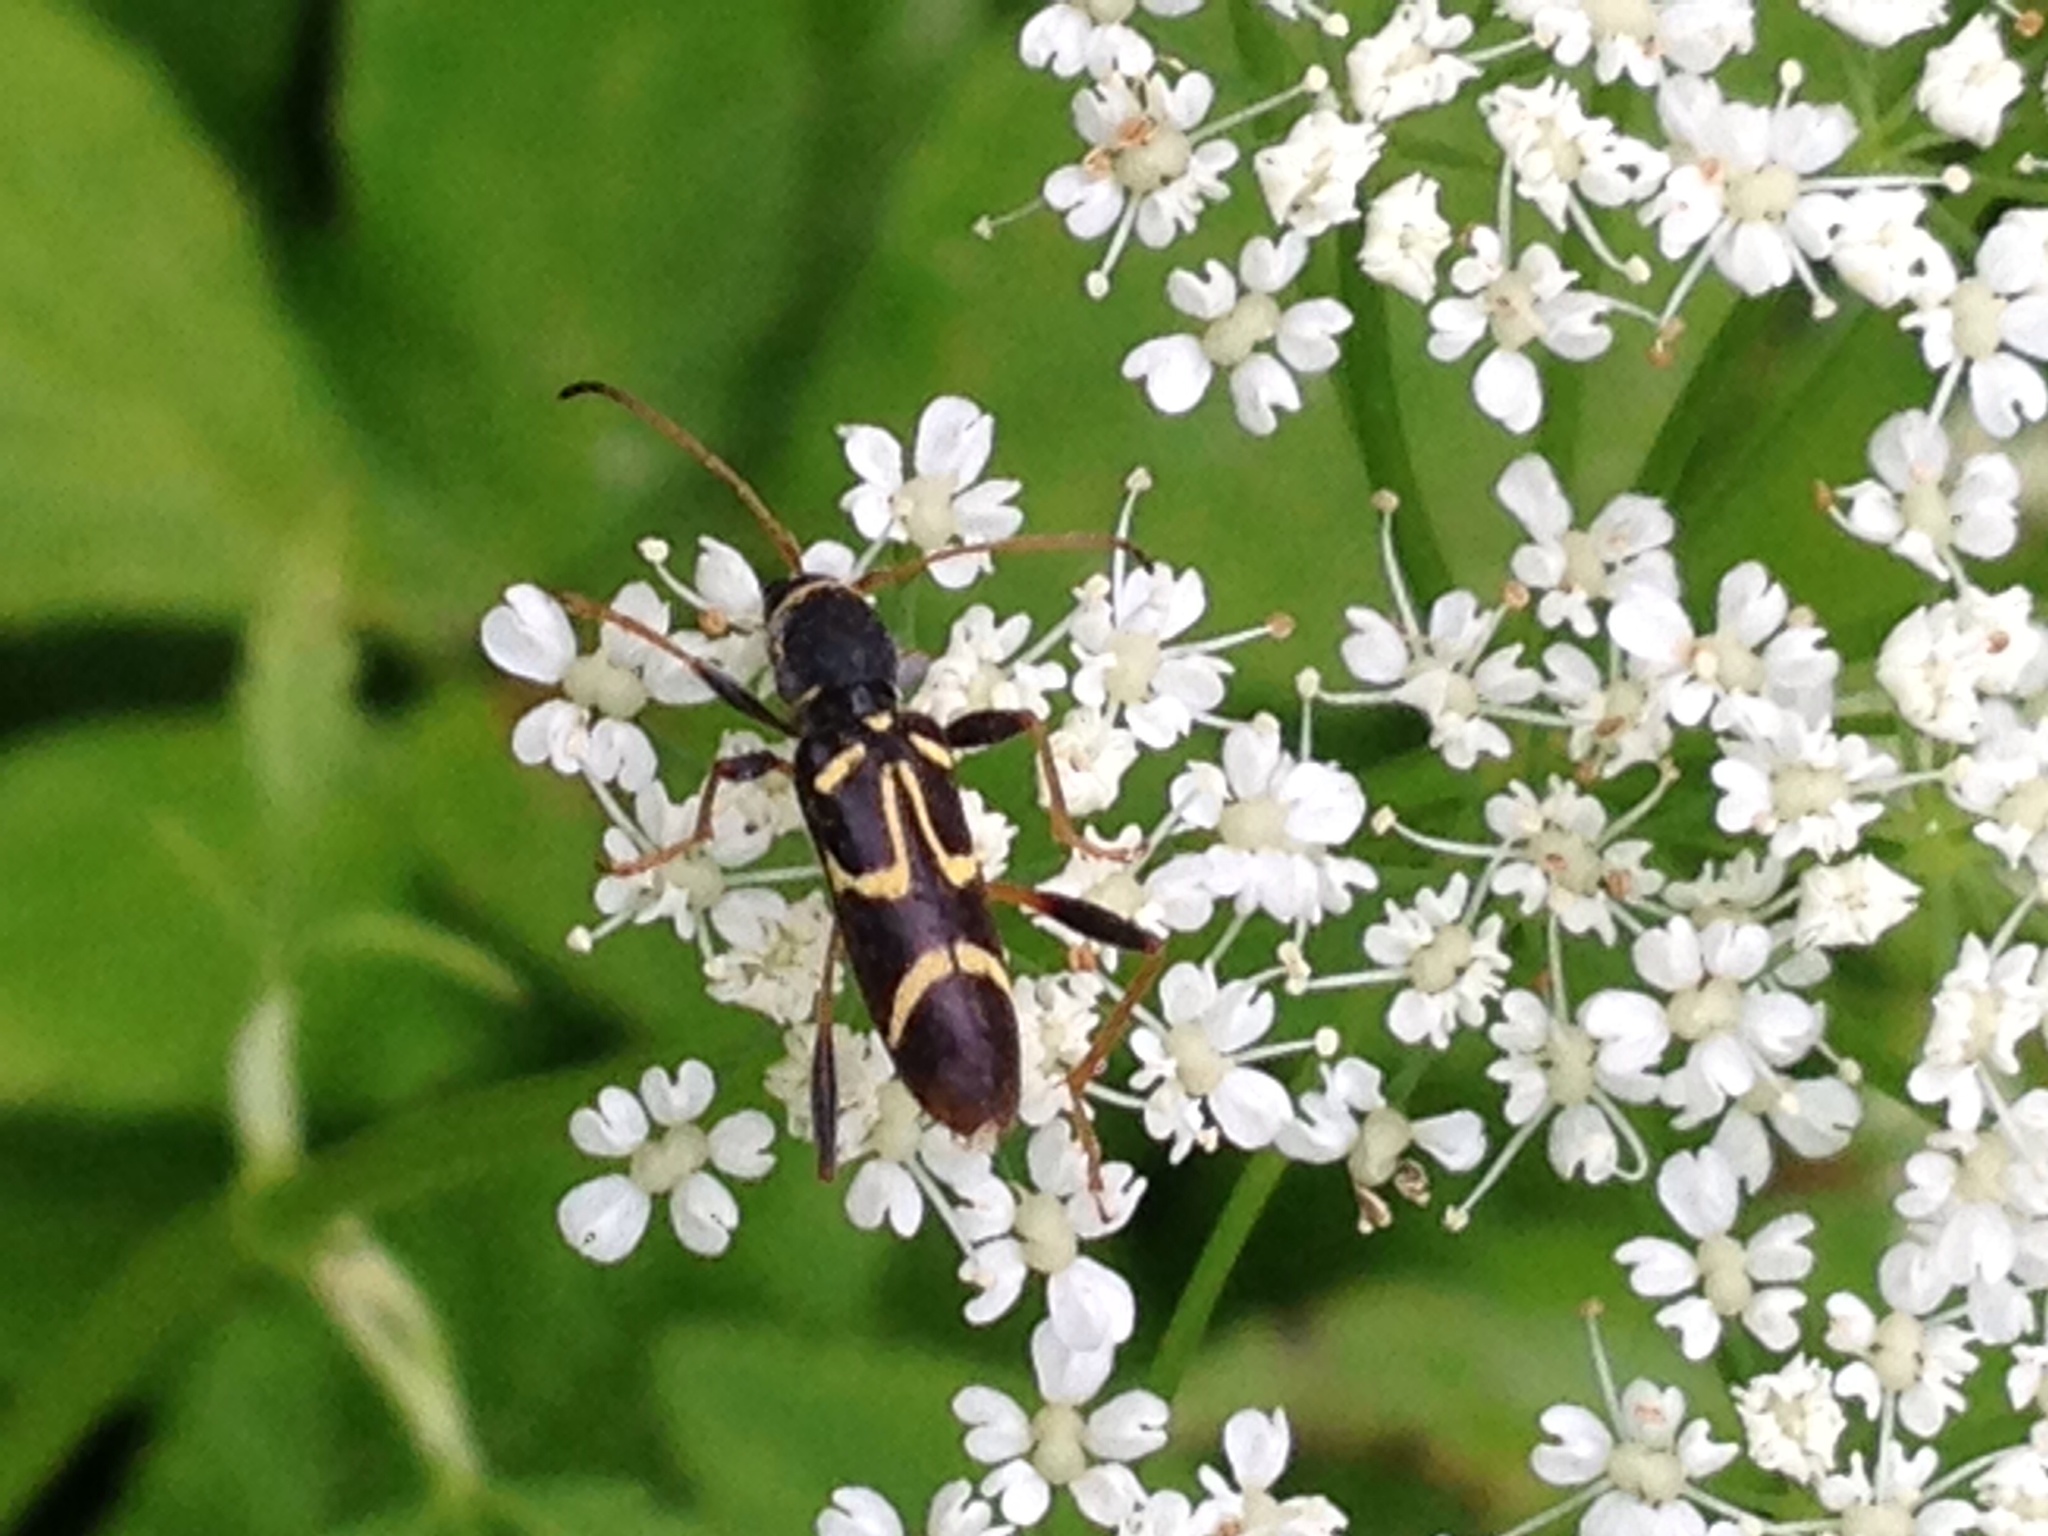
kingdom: Animalia
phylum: Arthropoda
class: Insecta
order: Coleoptera
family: Cerambycidae
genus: Clytus
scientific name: Clytus ruricola
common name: Round-necked longhorn beetle
